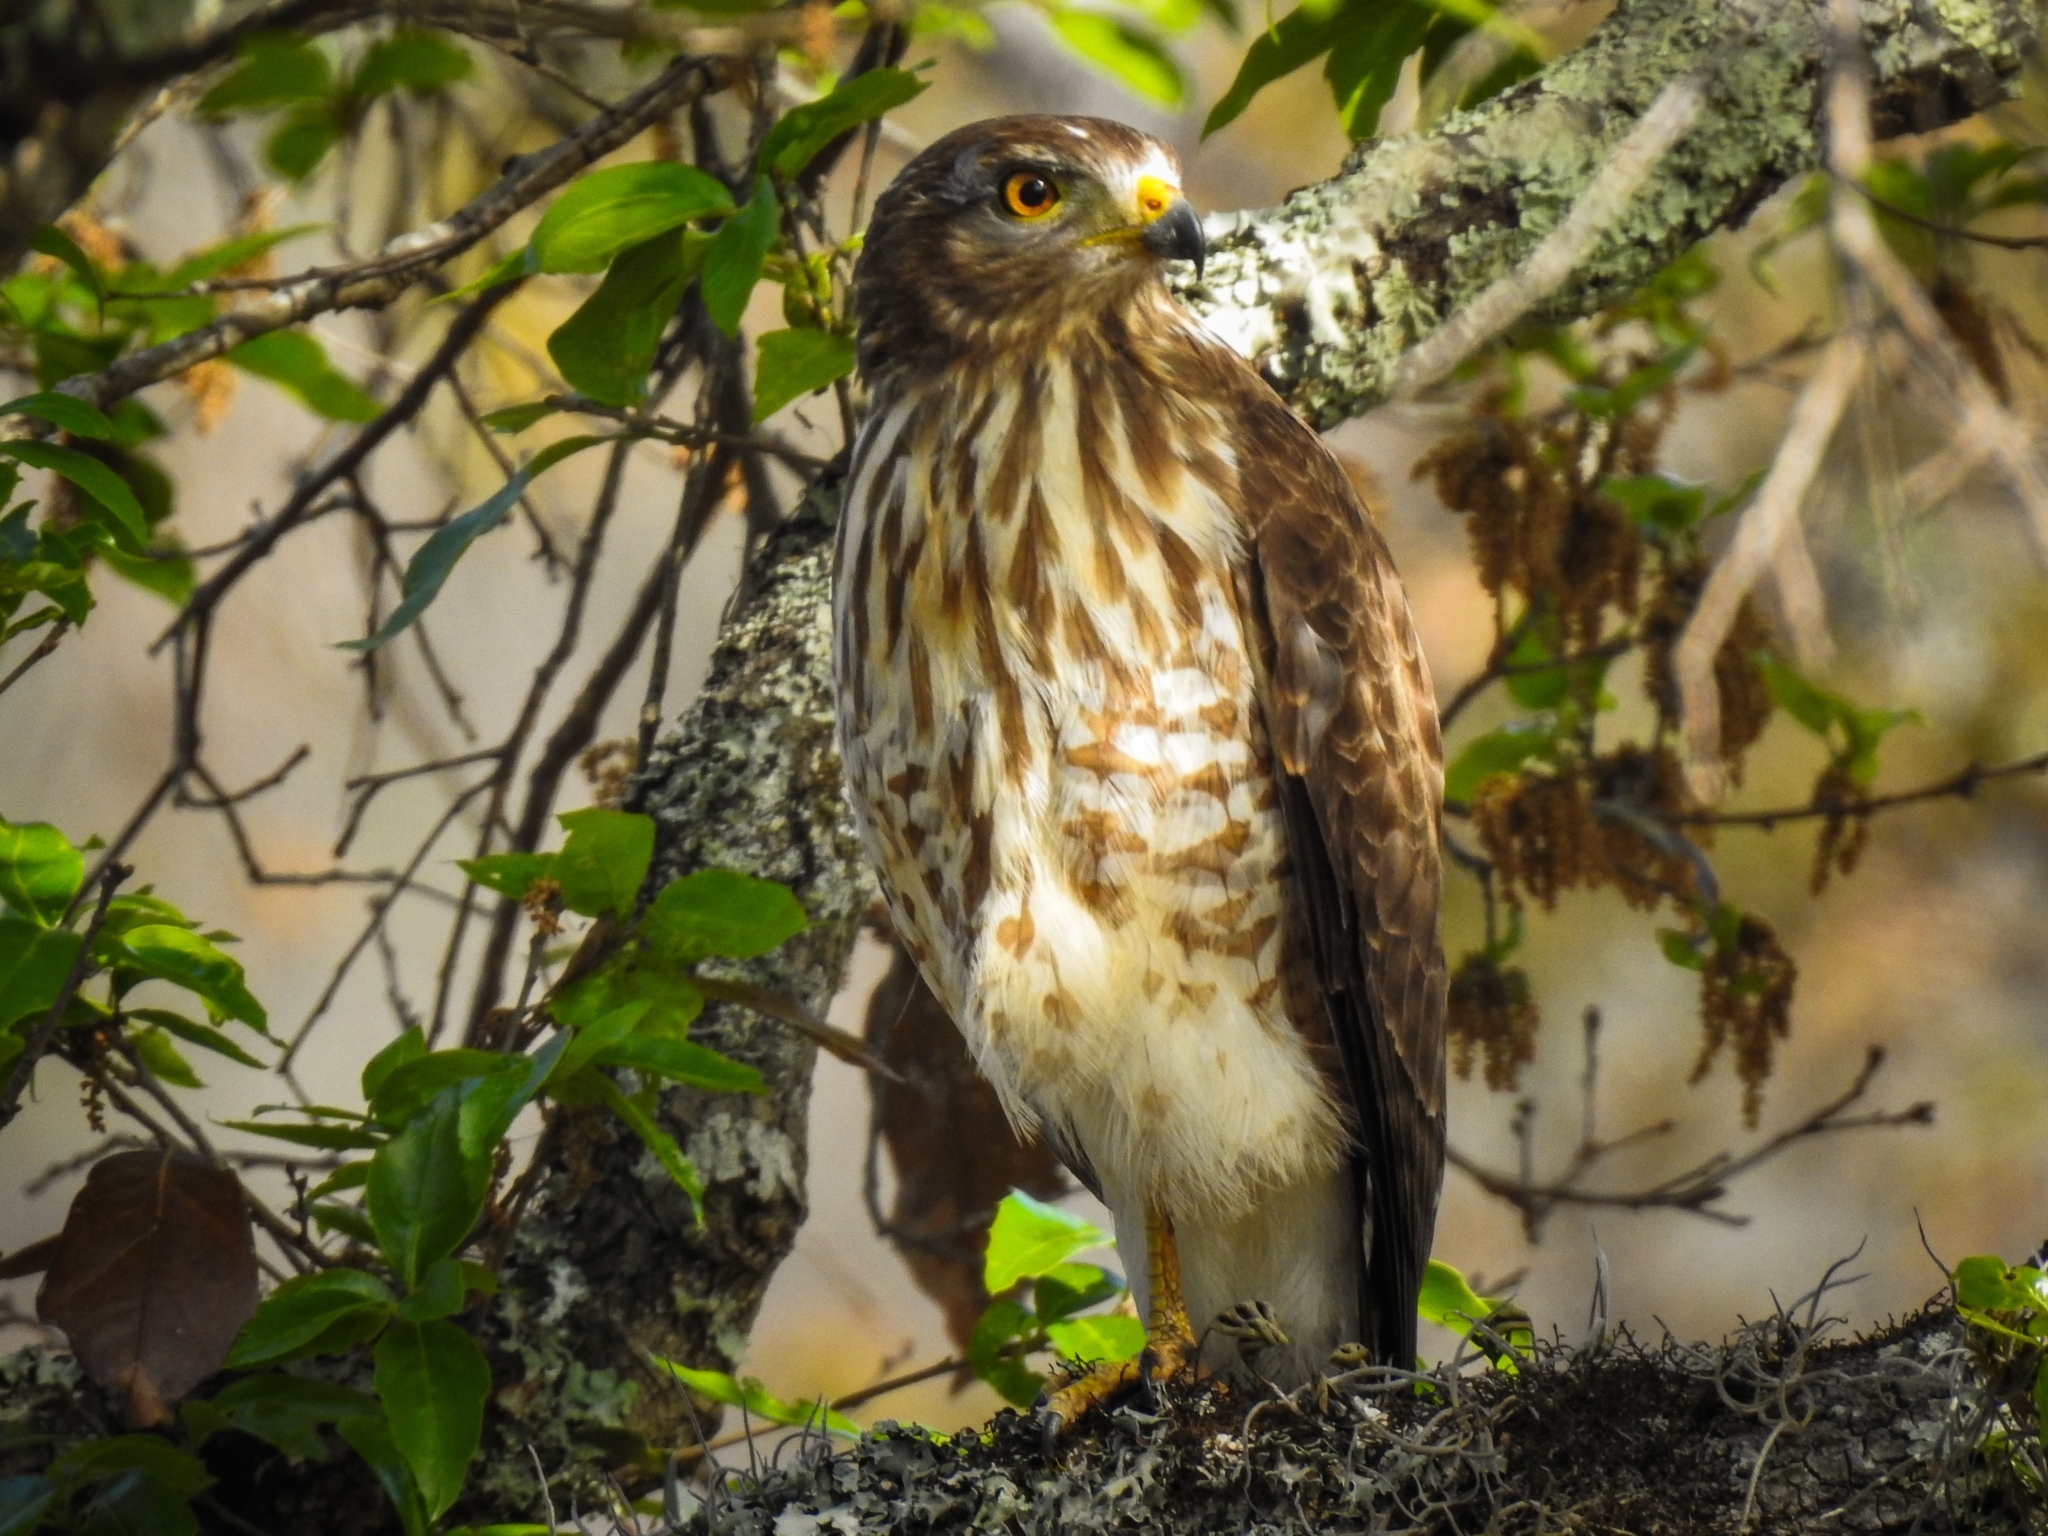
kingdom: Animalia
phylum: Chordata
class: Aves
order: Accipitriformes
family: Accipitridae
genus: Rupornis
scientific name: Rupornis magnirostris
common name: Roadside hawk
